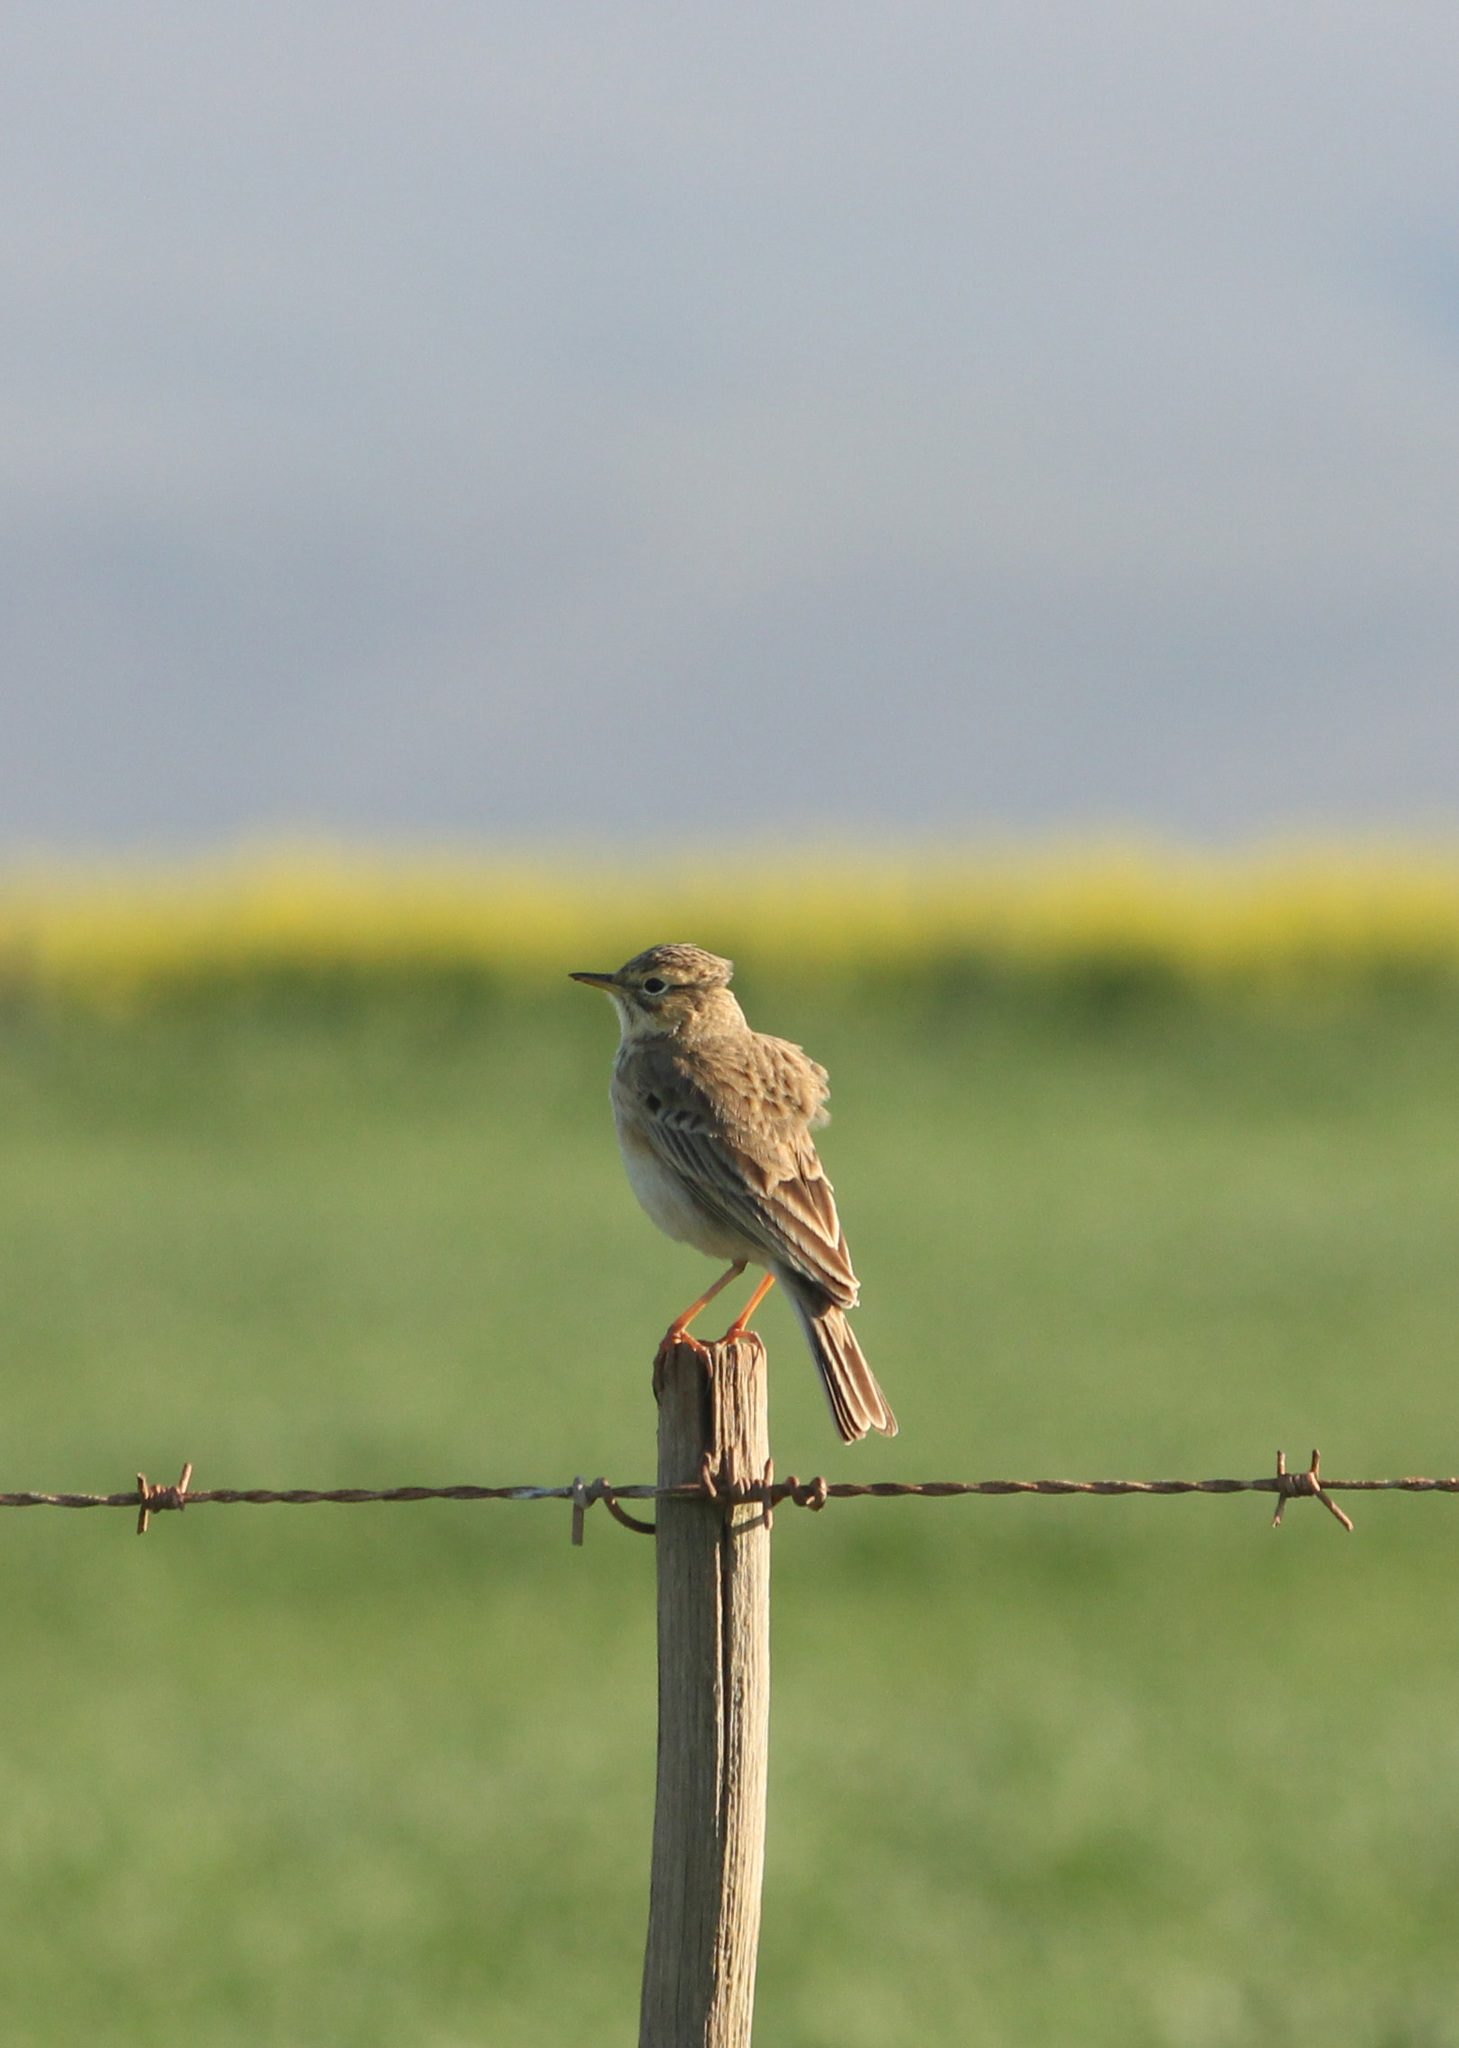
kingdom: Animalia
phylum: Chordata
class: Aves
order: Passeriformes
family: Motacillidae
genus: Anthus
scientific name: Anthus cinnamomeus
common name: African pipit
